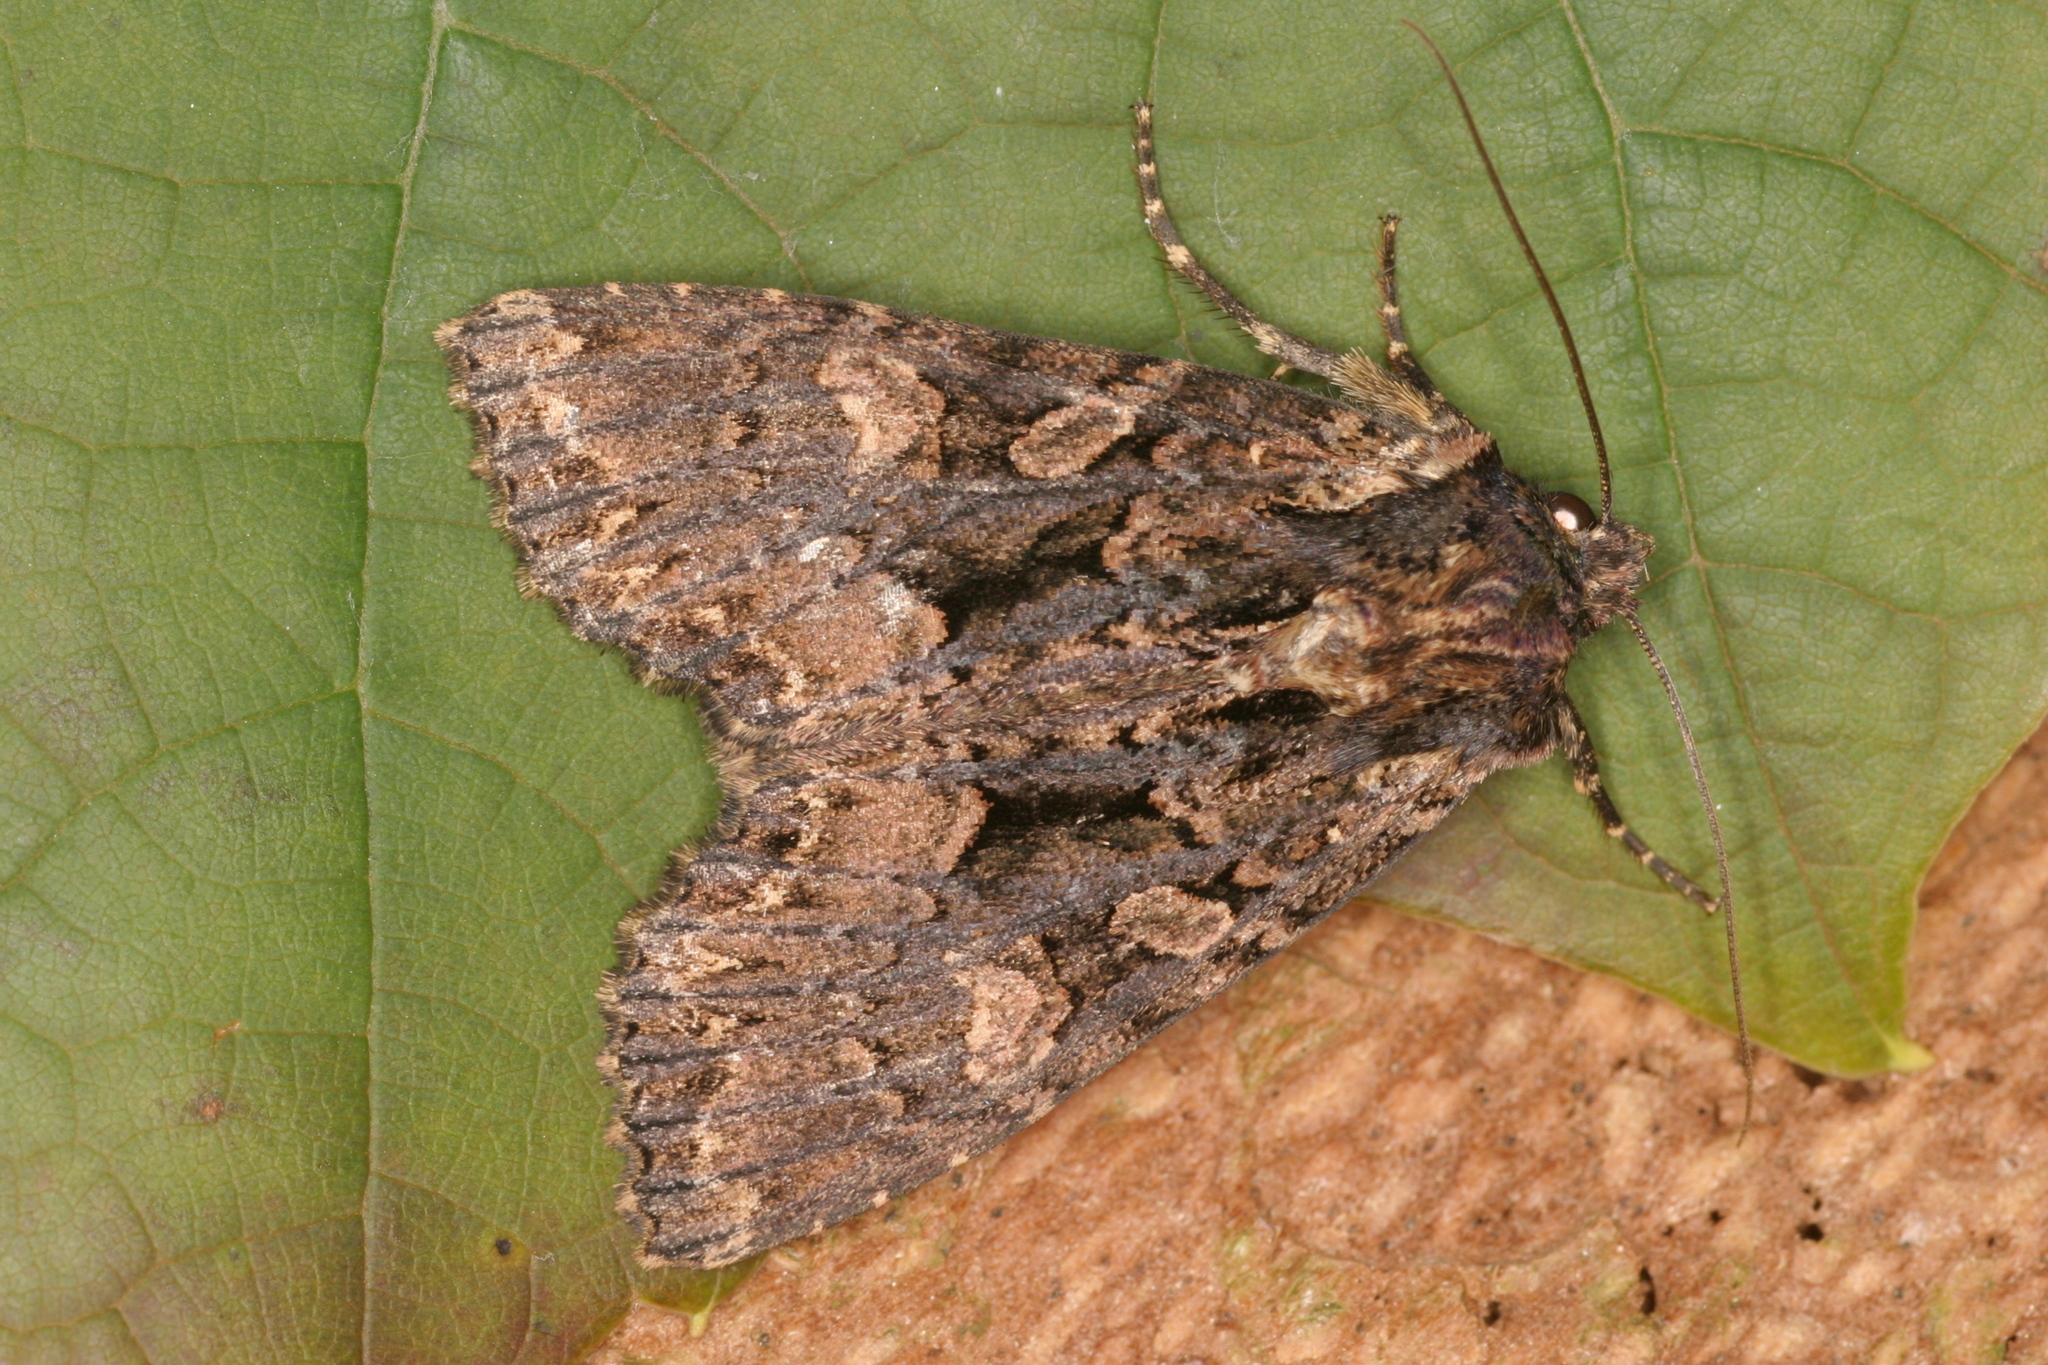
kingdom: Animalia
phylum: Arthropoda
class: Insecta
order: Lepidoptera
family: Noctuidae
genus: Mniotype
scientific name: Mniotype satura
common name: Beautiful arches
